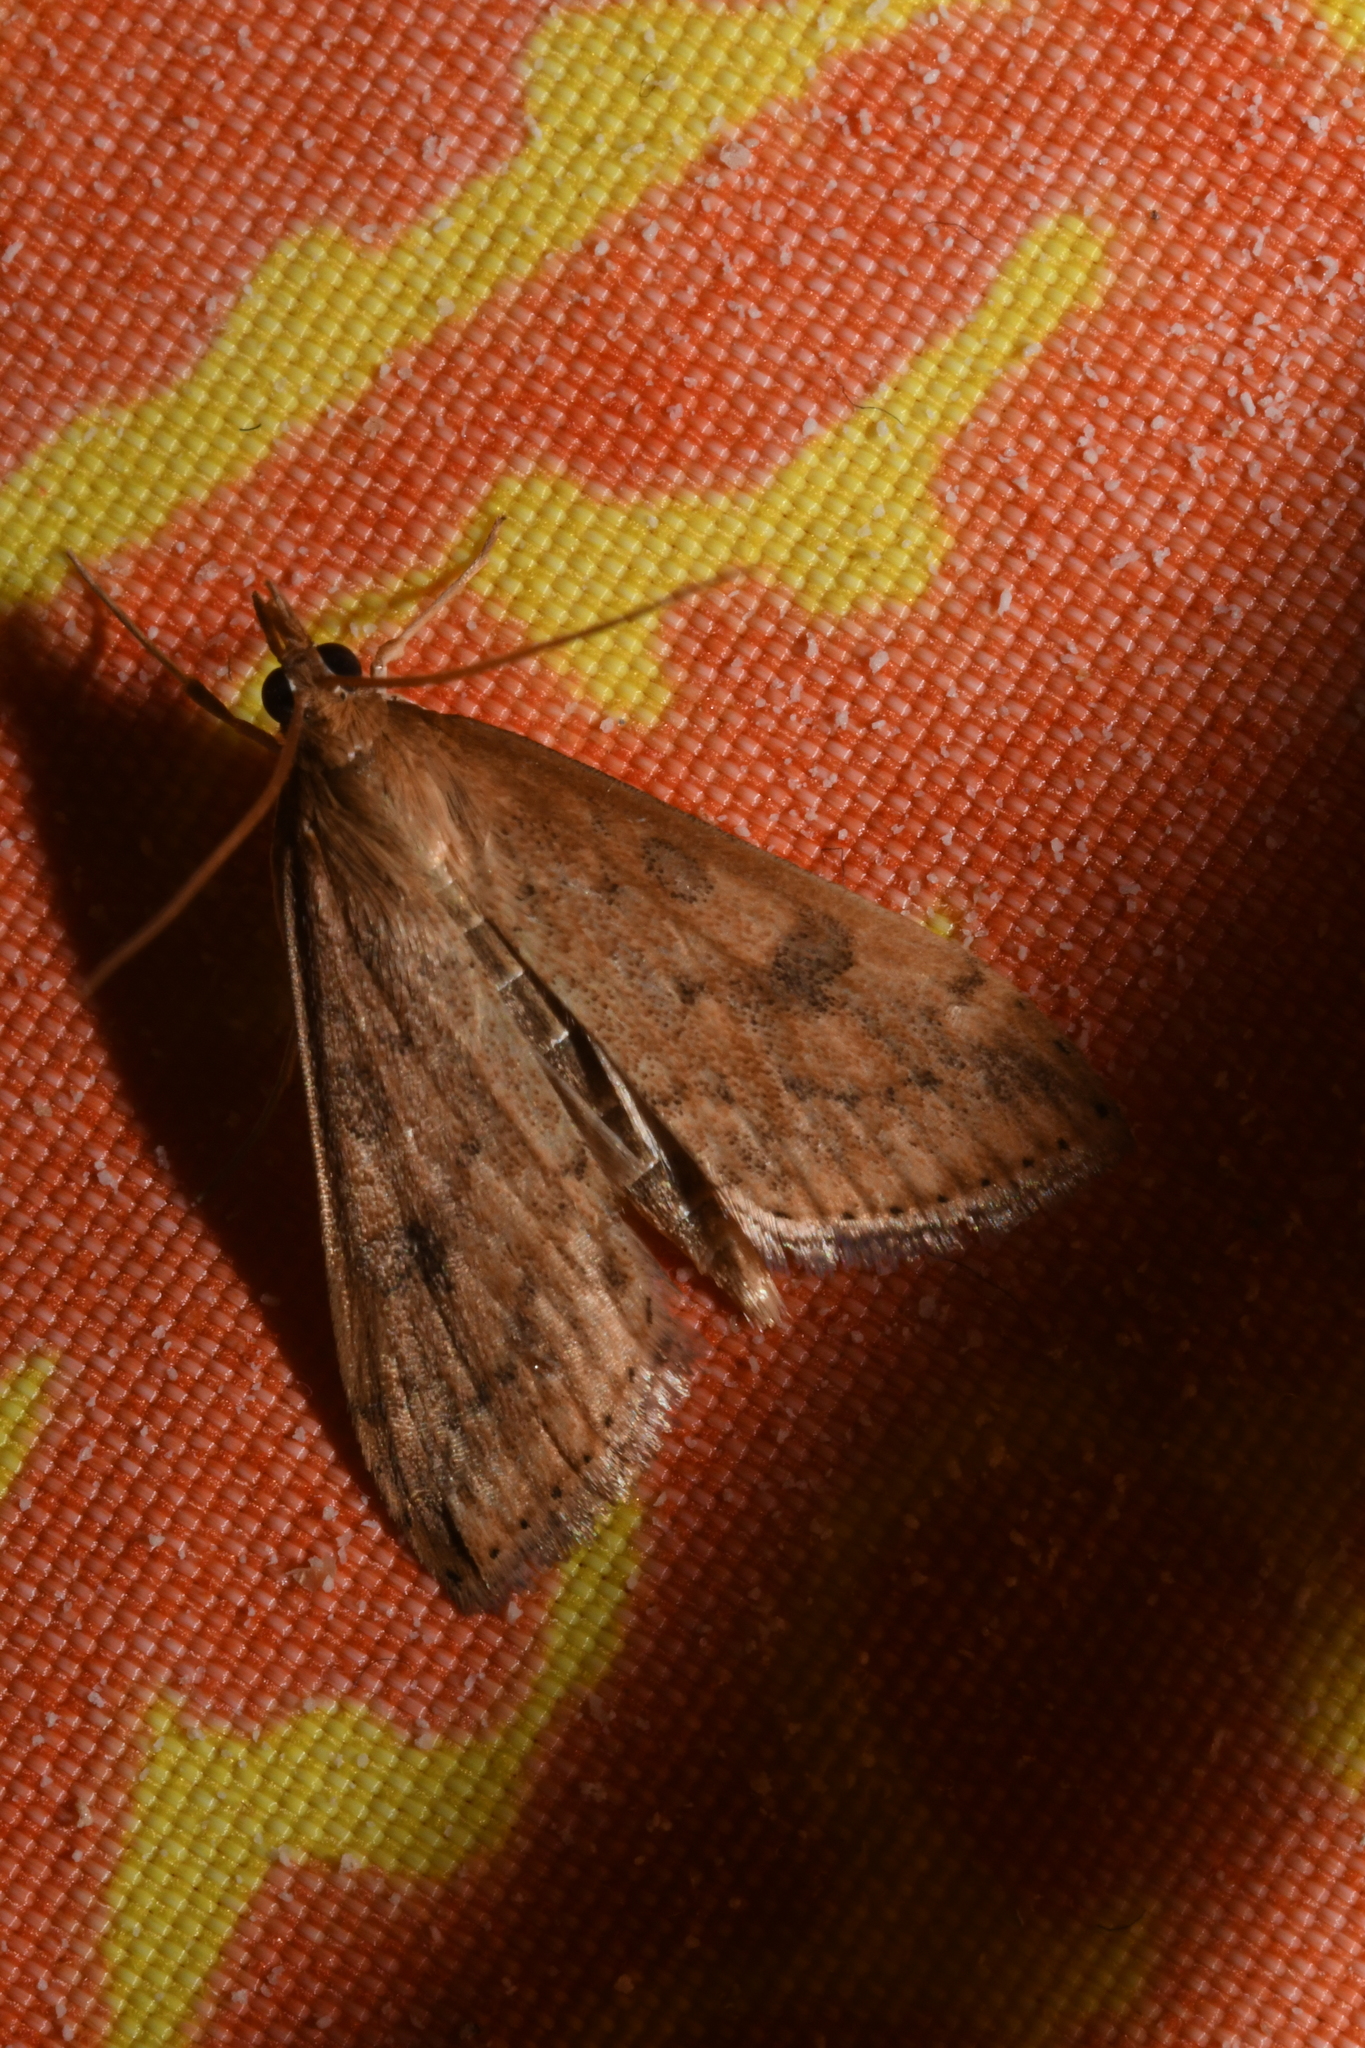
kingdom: Animalia
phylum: Arthropoda
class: Insecta
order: Lepidoptera
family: Crambidae
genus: Udea
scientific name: Udea ferrugalis
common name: Rusty dot
